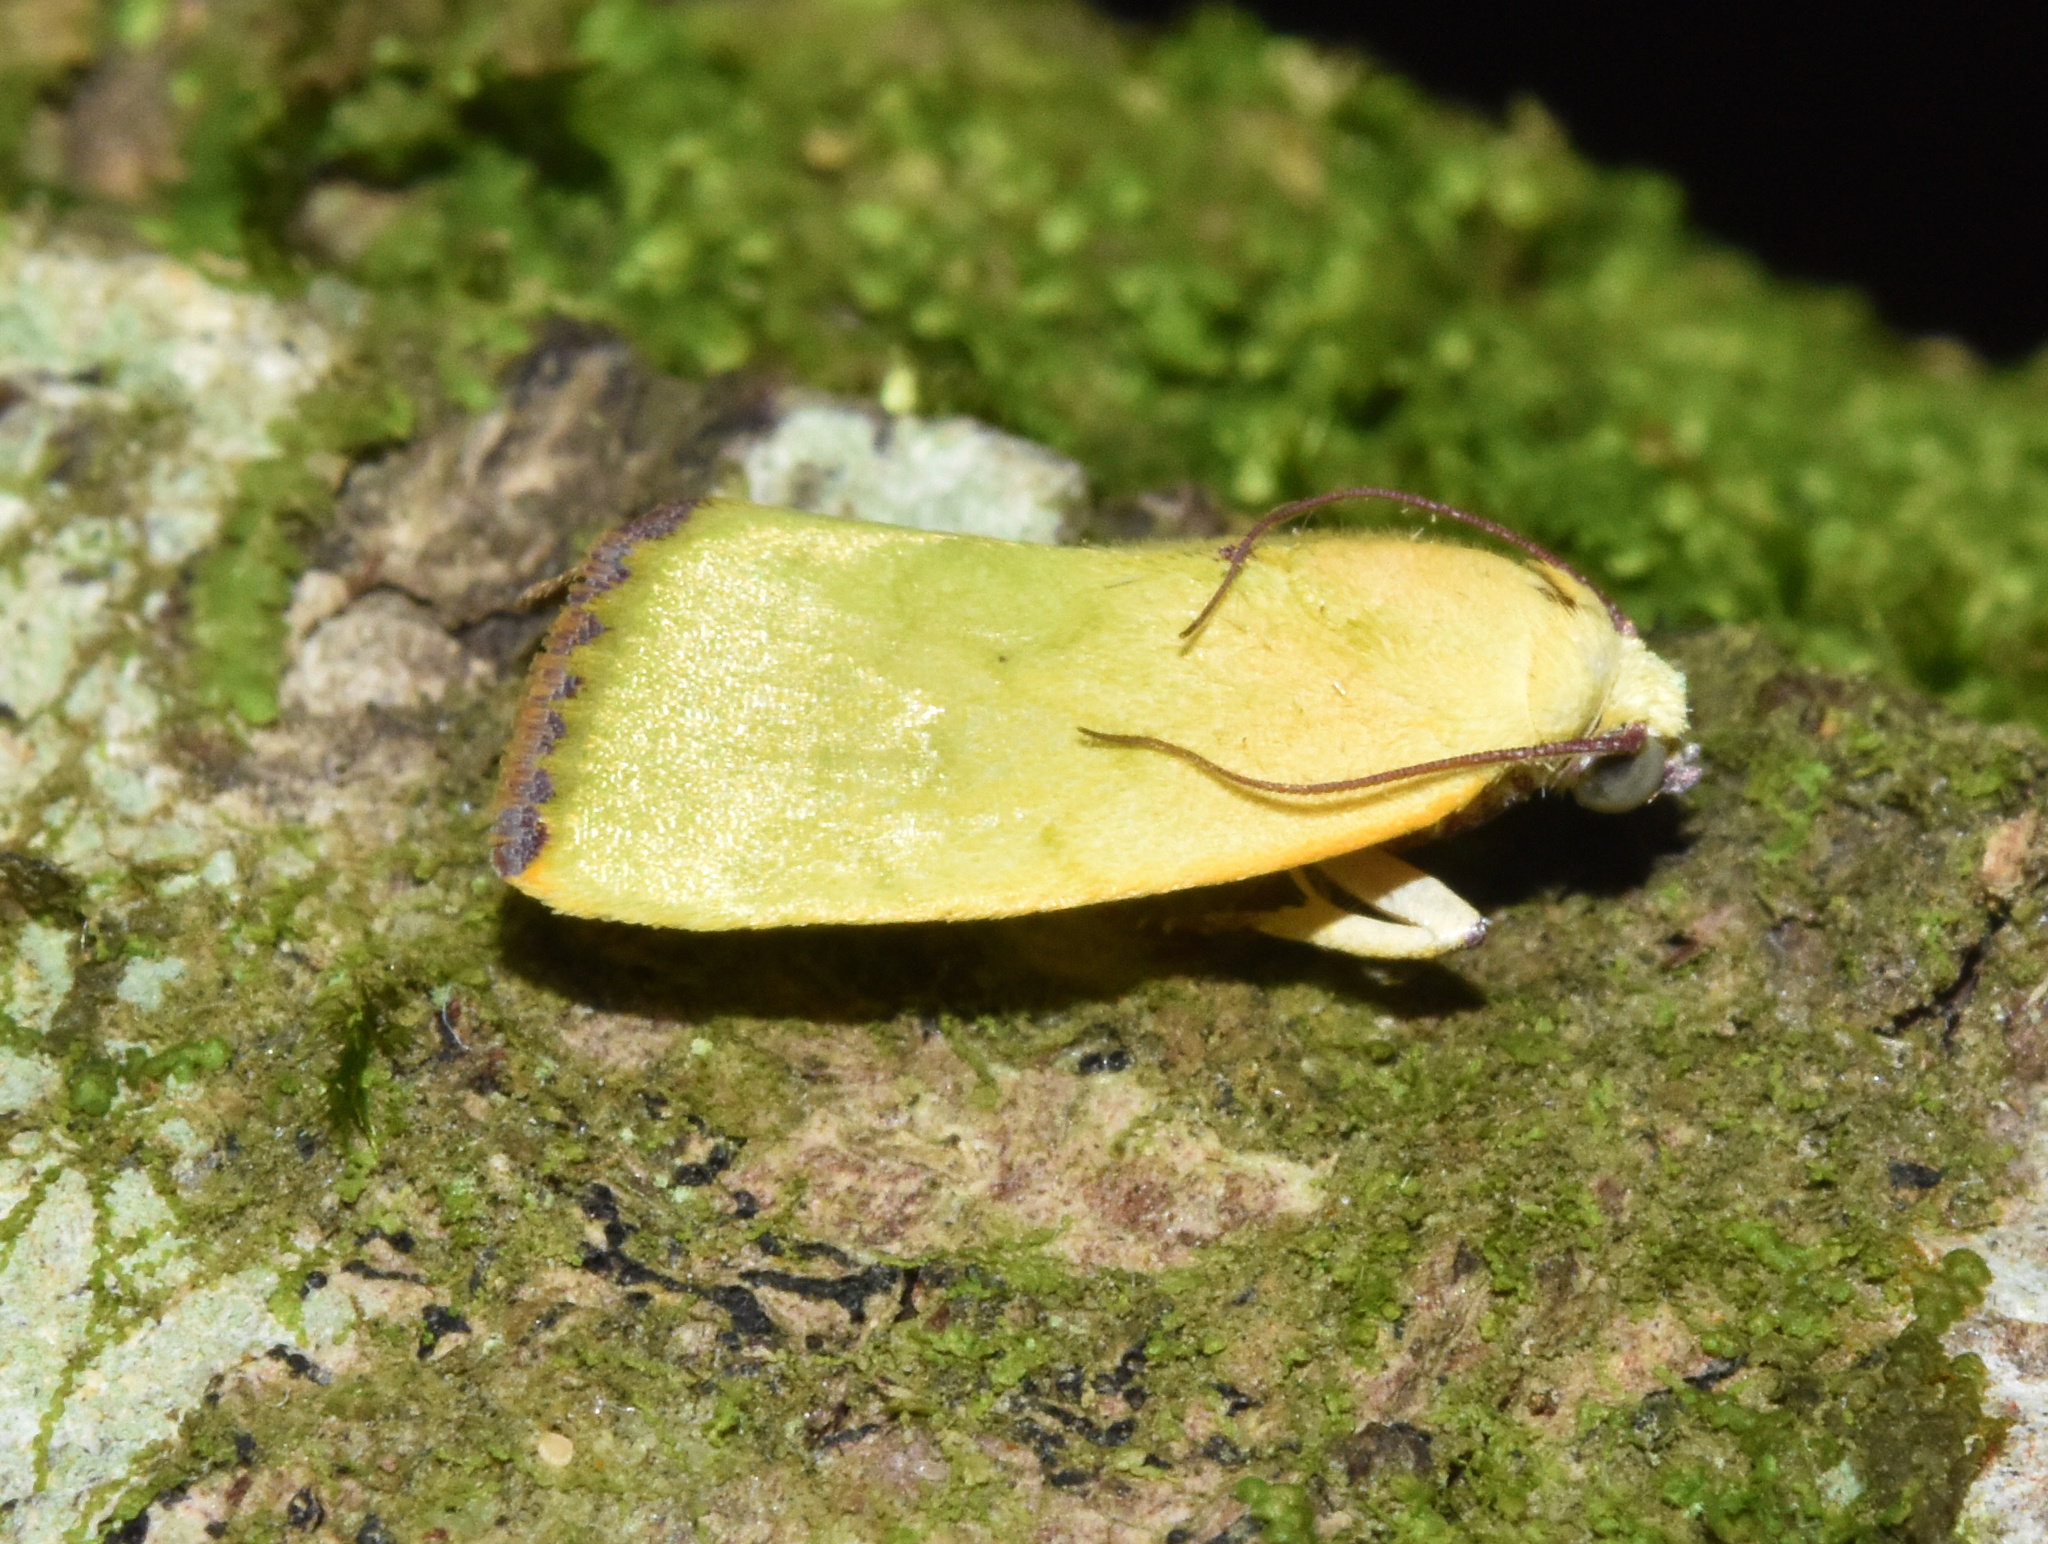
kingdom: Animalia
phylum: Arthropoda
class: Insecta
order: Lepidoptera
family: Nolidae
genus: Earias
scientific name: Earias biplaga
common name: Spiny bollworm
